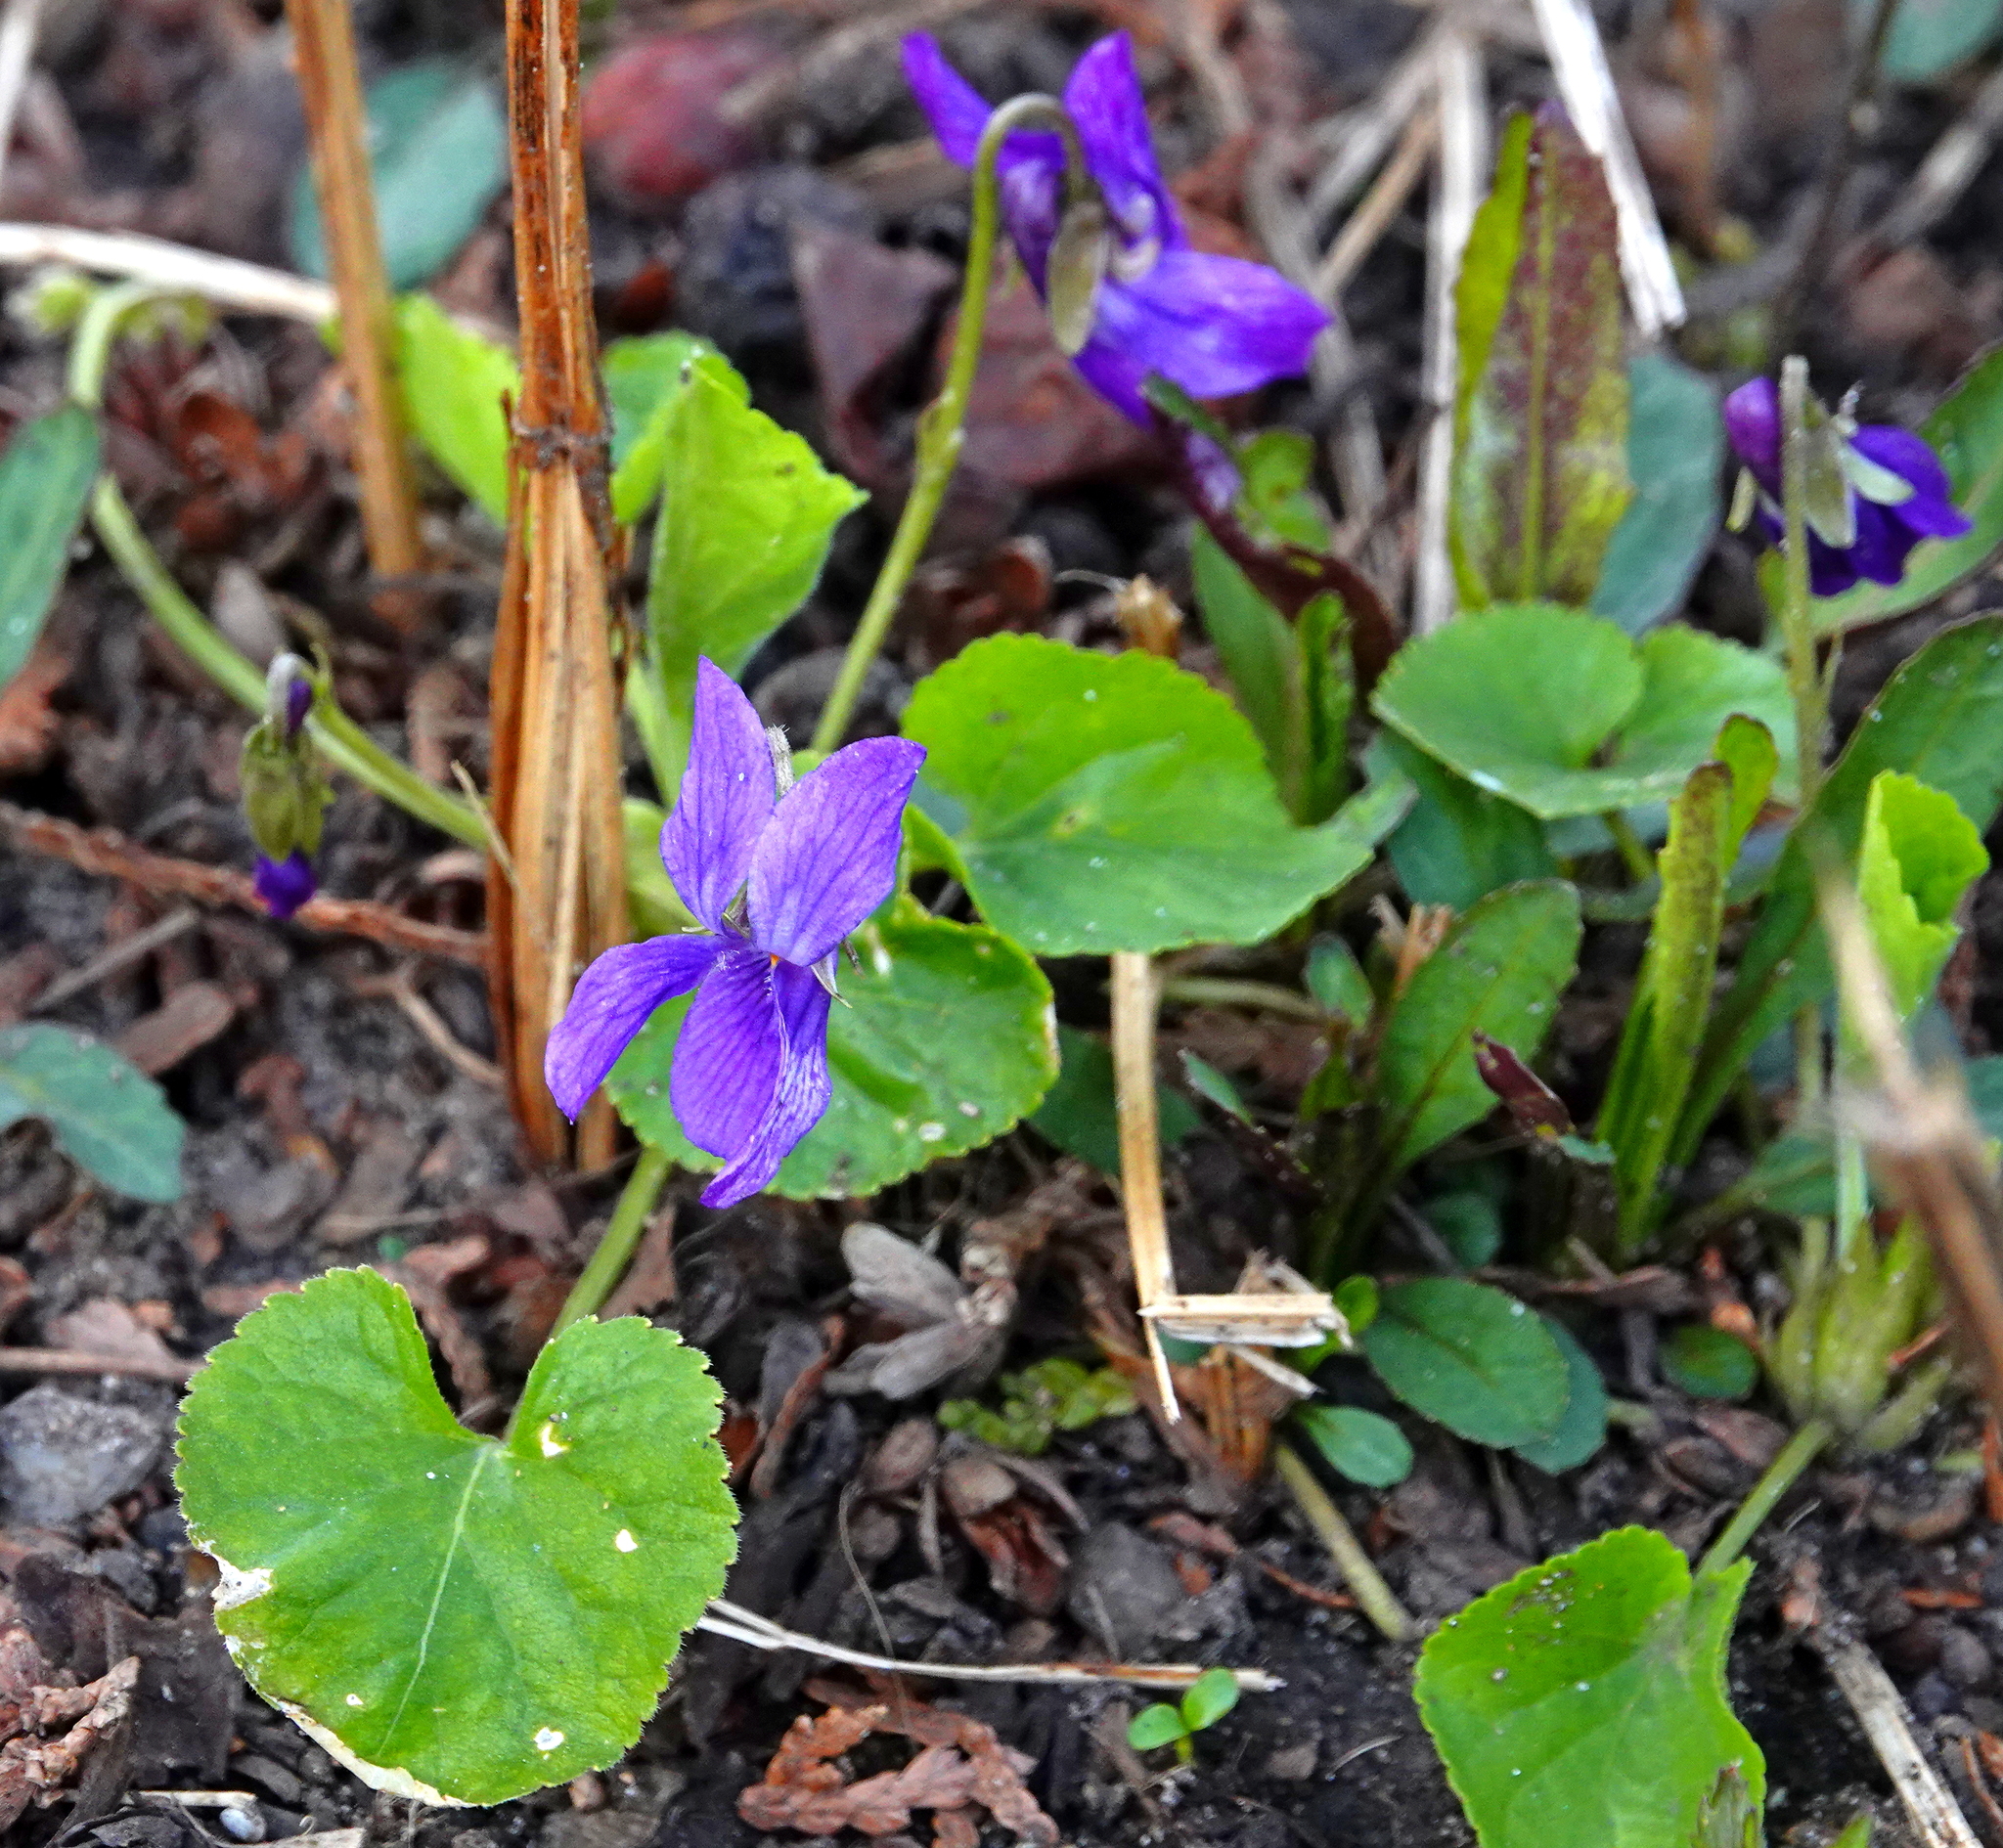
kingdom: Plantae
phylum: Tracheophyta
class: Magnoliopsida
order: Malpighiales
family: Violaceae
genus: Viola
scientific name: Viola odorata
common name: Sweet violet
